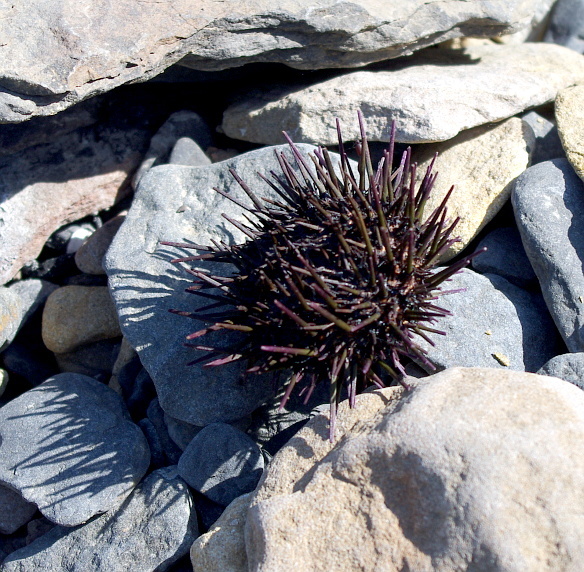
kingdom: Animalia
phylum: Echinodermata
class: Echinoidea
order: Camarodonta
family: Strongylocentrotidae
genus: Mesocentrotus
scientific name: Mesocentrotus nudus
